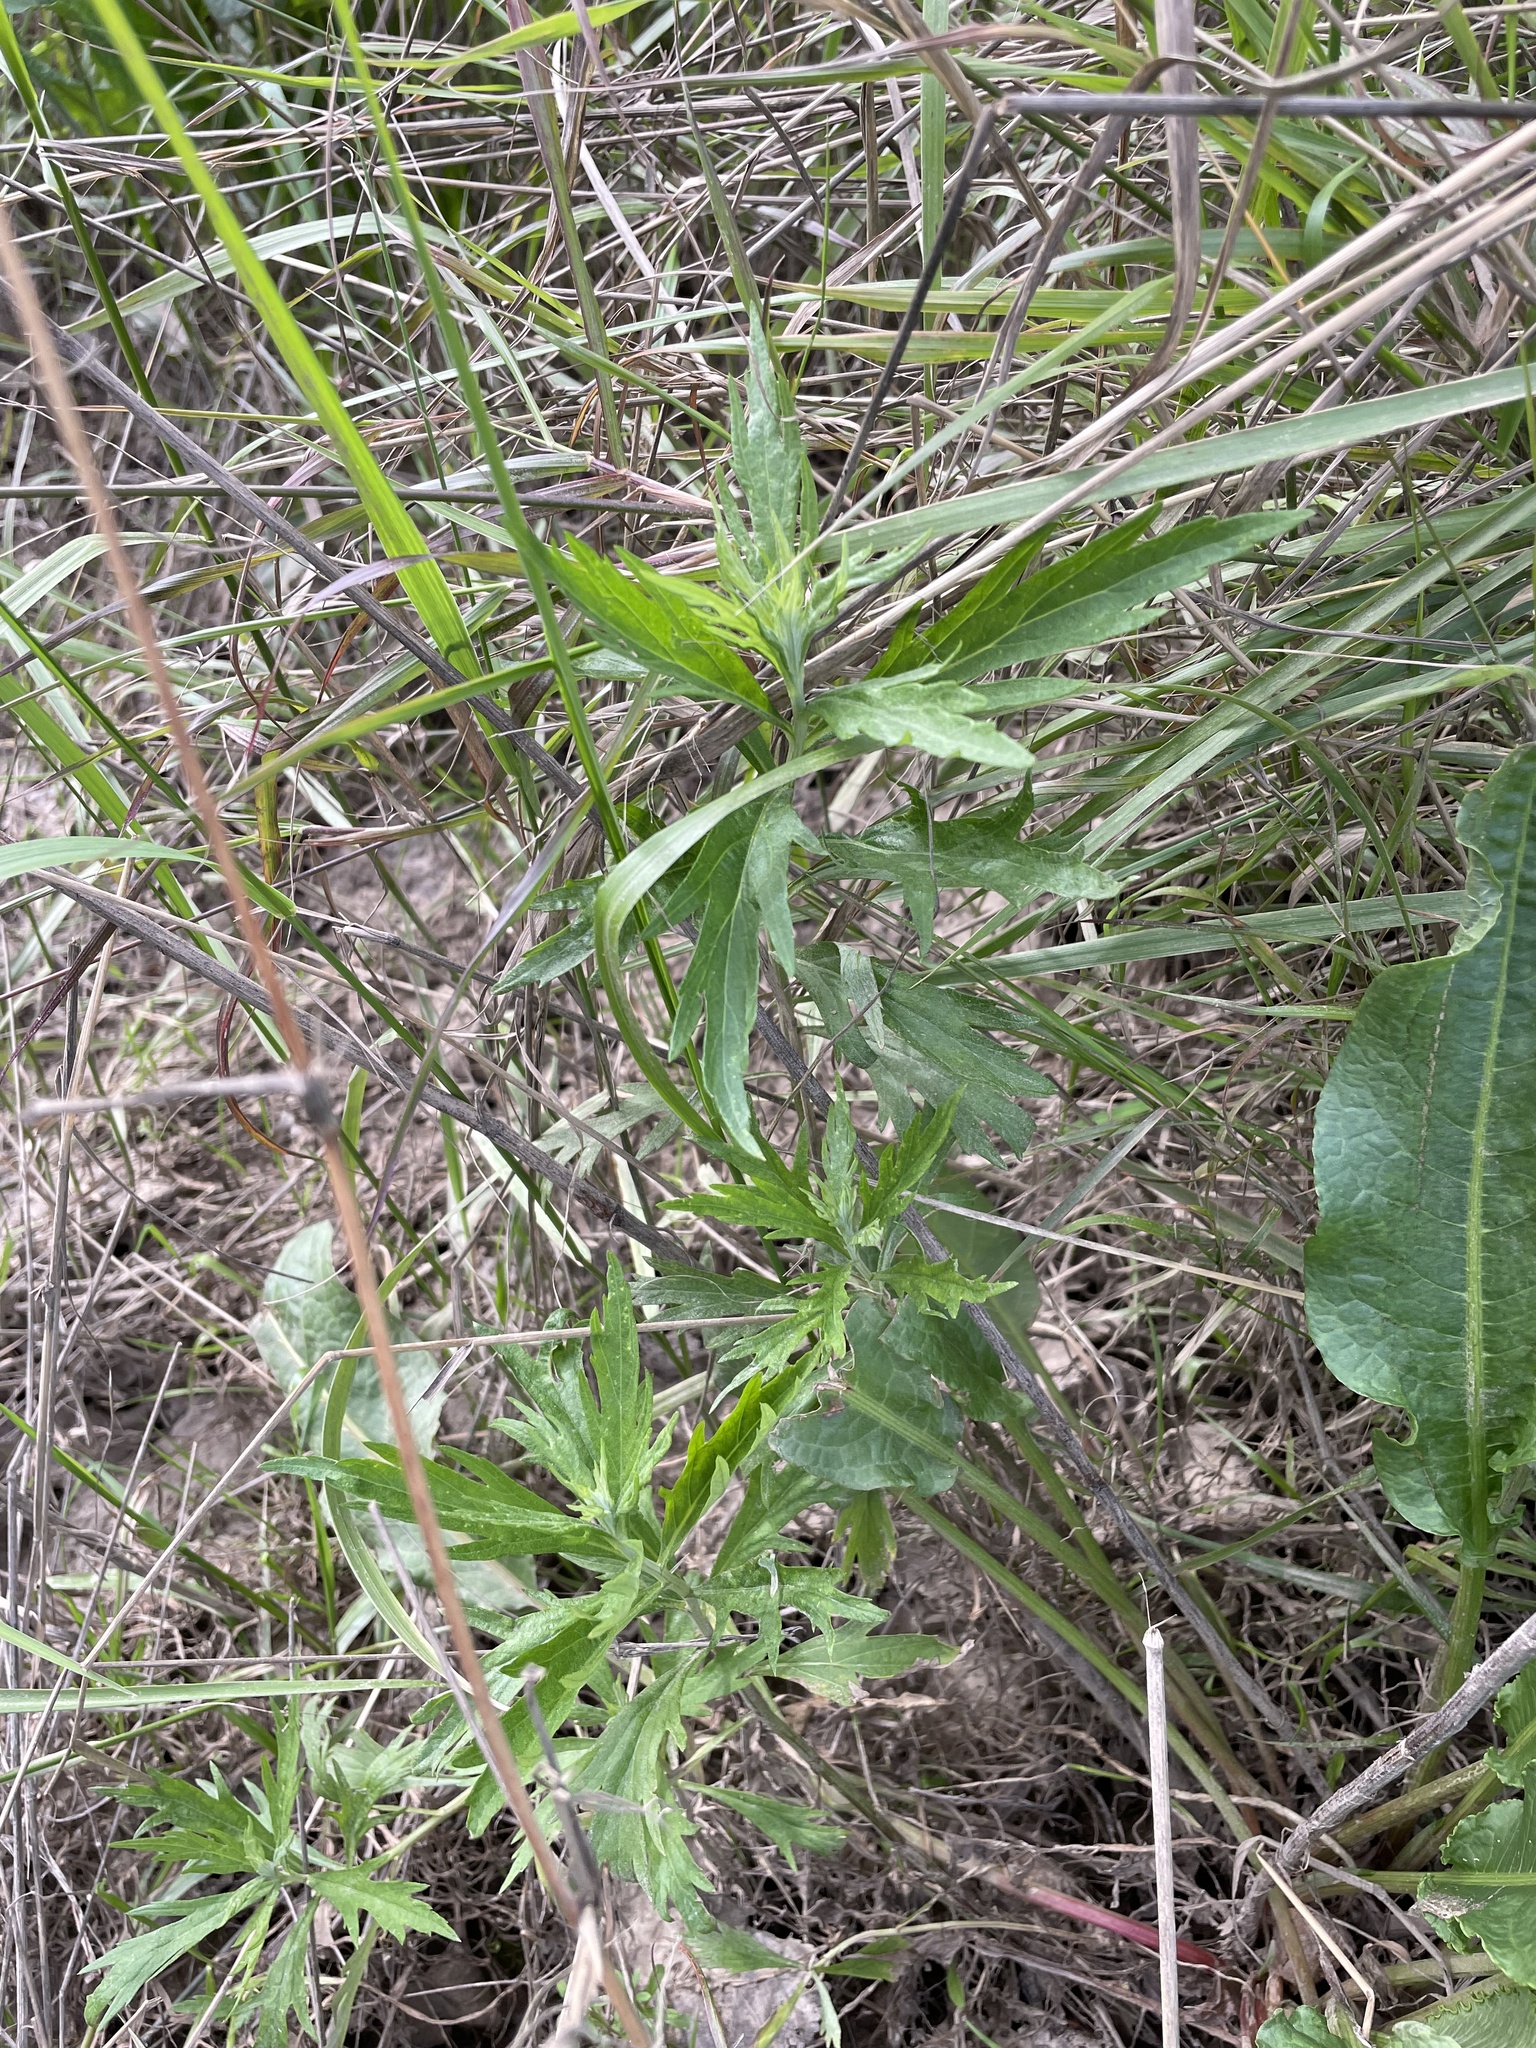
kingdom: Plantae
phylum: Tracheophyta
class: Magnoliopsida
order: Asterales
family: Asteraceae
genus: Artemisia
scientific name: Artemisia douglasiana
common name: Northwest mugwort
